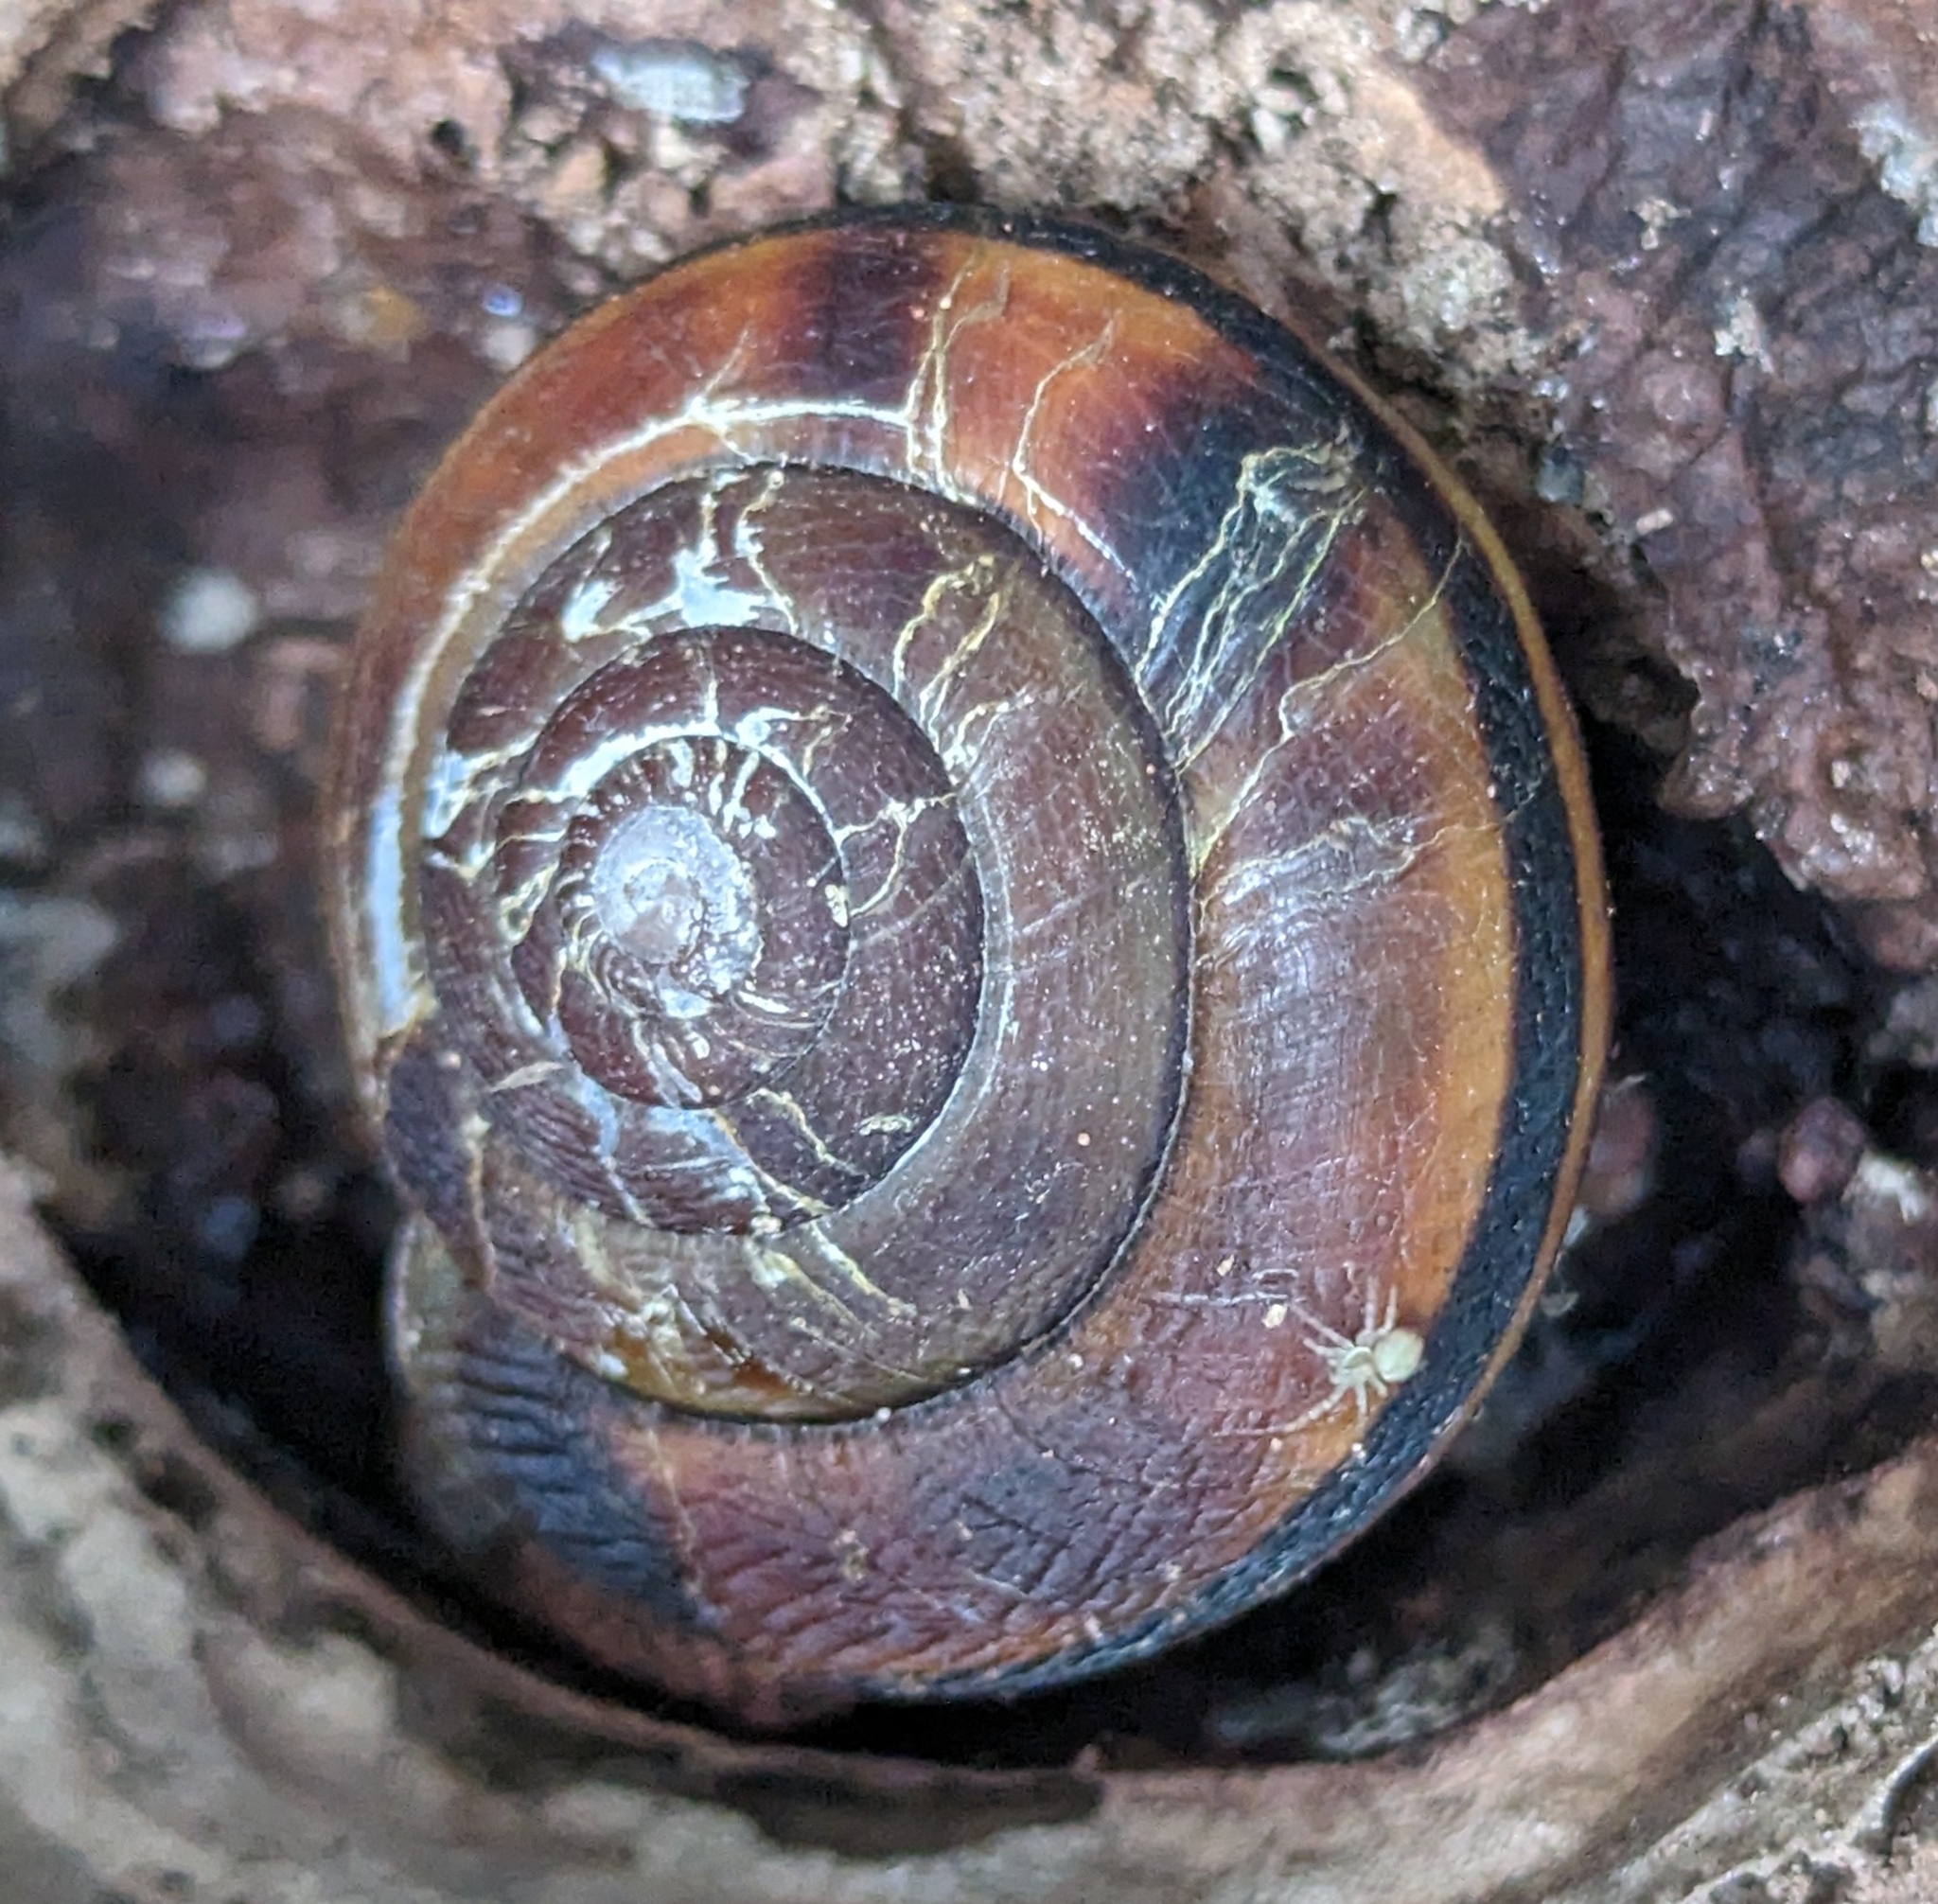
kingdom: Animalia
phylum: Mollusca
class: Gastropoda
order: Stylommatophora
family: Xanthonychidae
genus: Monadenia
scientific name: Monadenia fidelis
